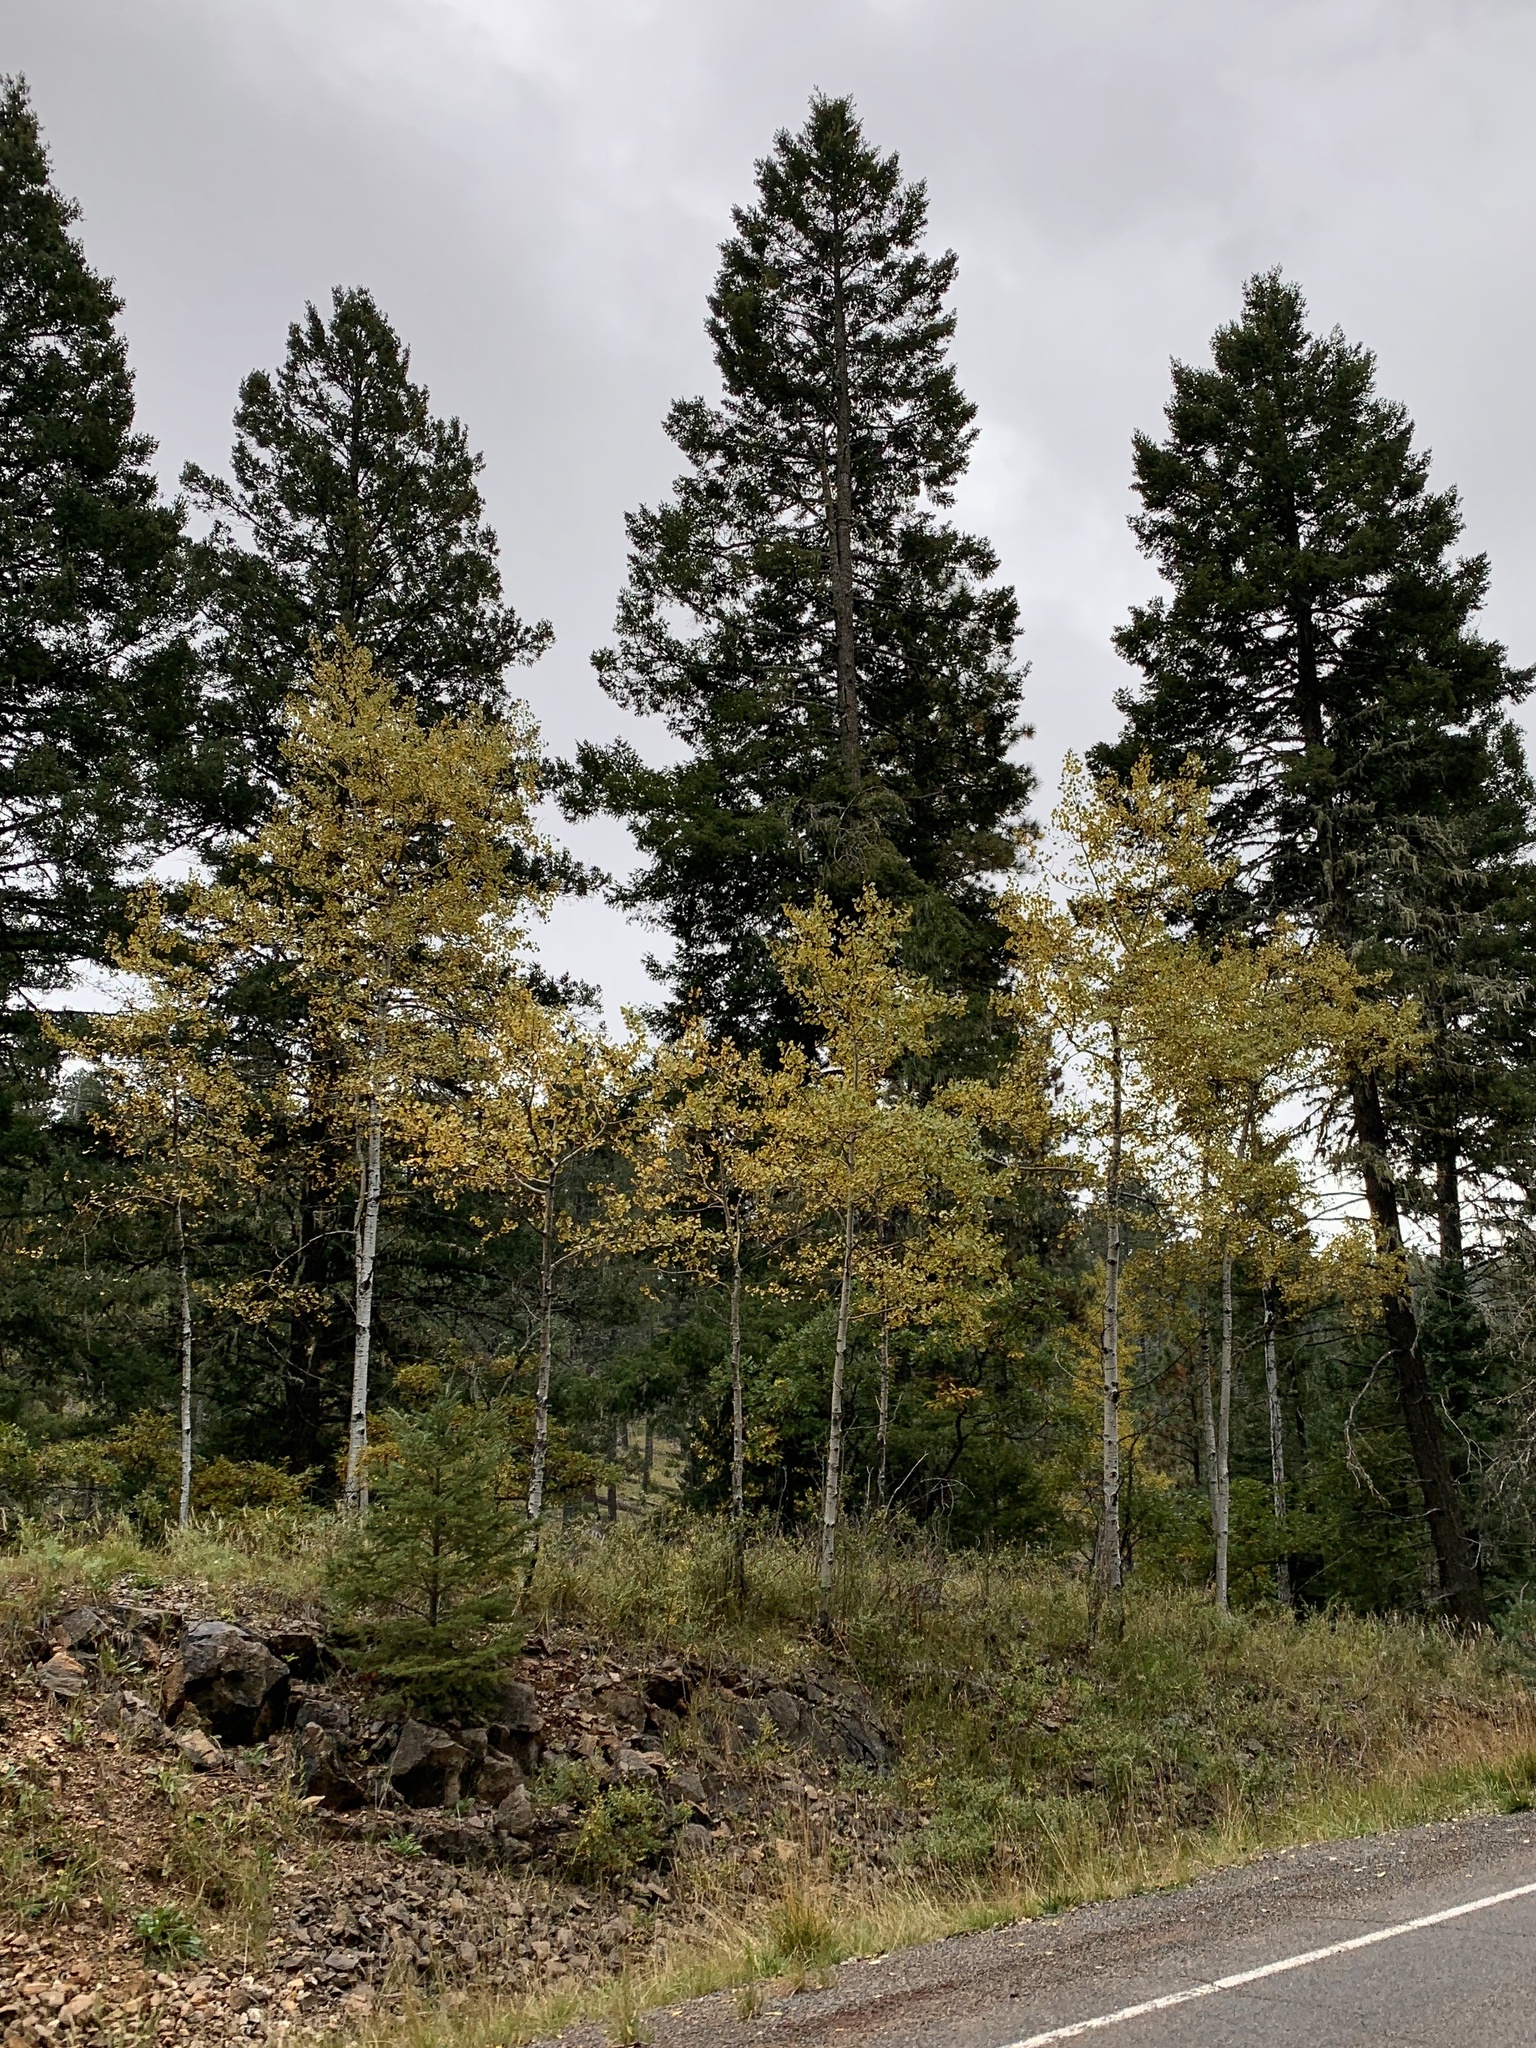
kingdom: Plantae
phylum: Tracheophyta
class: Magnoliopsida
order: Malpighiales
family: Salicaceae
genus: Populus
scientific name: Populus tremuloides
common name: Quaking aspen
